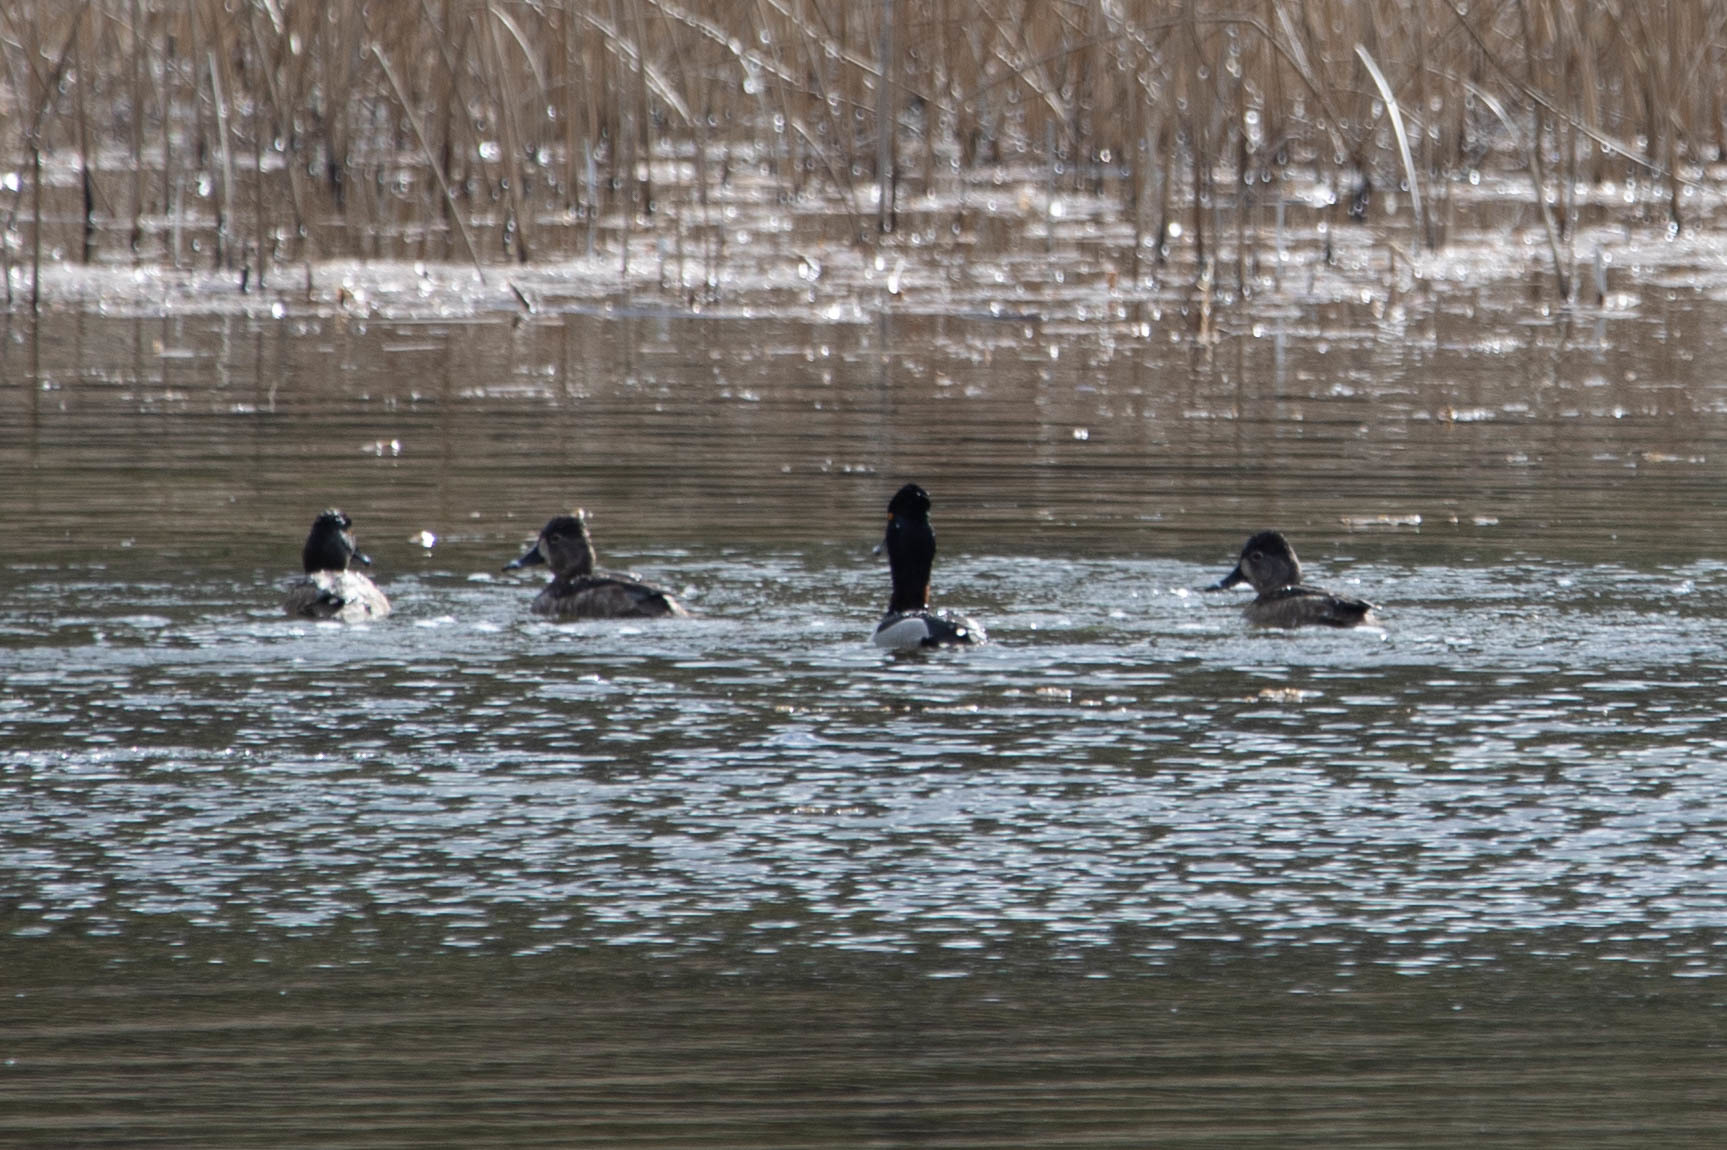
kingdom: Animalia
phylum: Chordata
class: Aves
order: Anseriformes
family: Anatidae
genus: Aythya
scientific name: Aythya collaris
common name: Ring-necked duck
